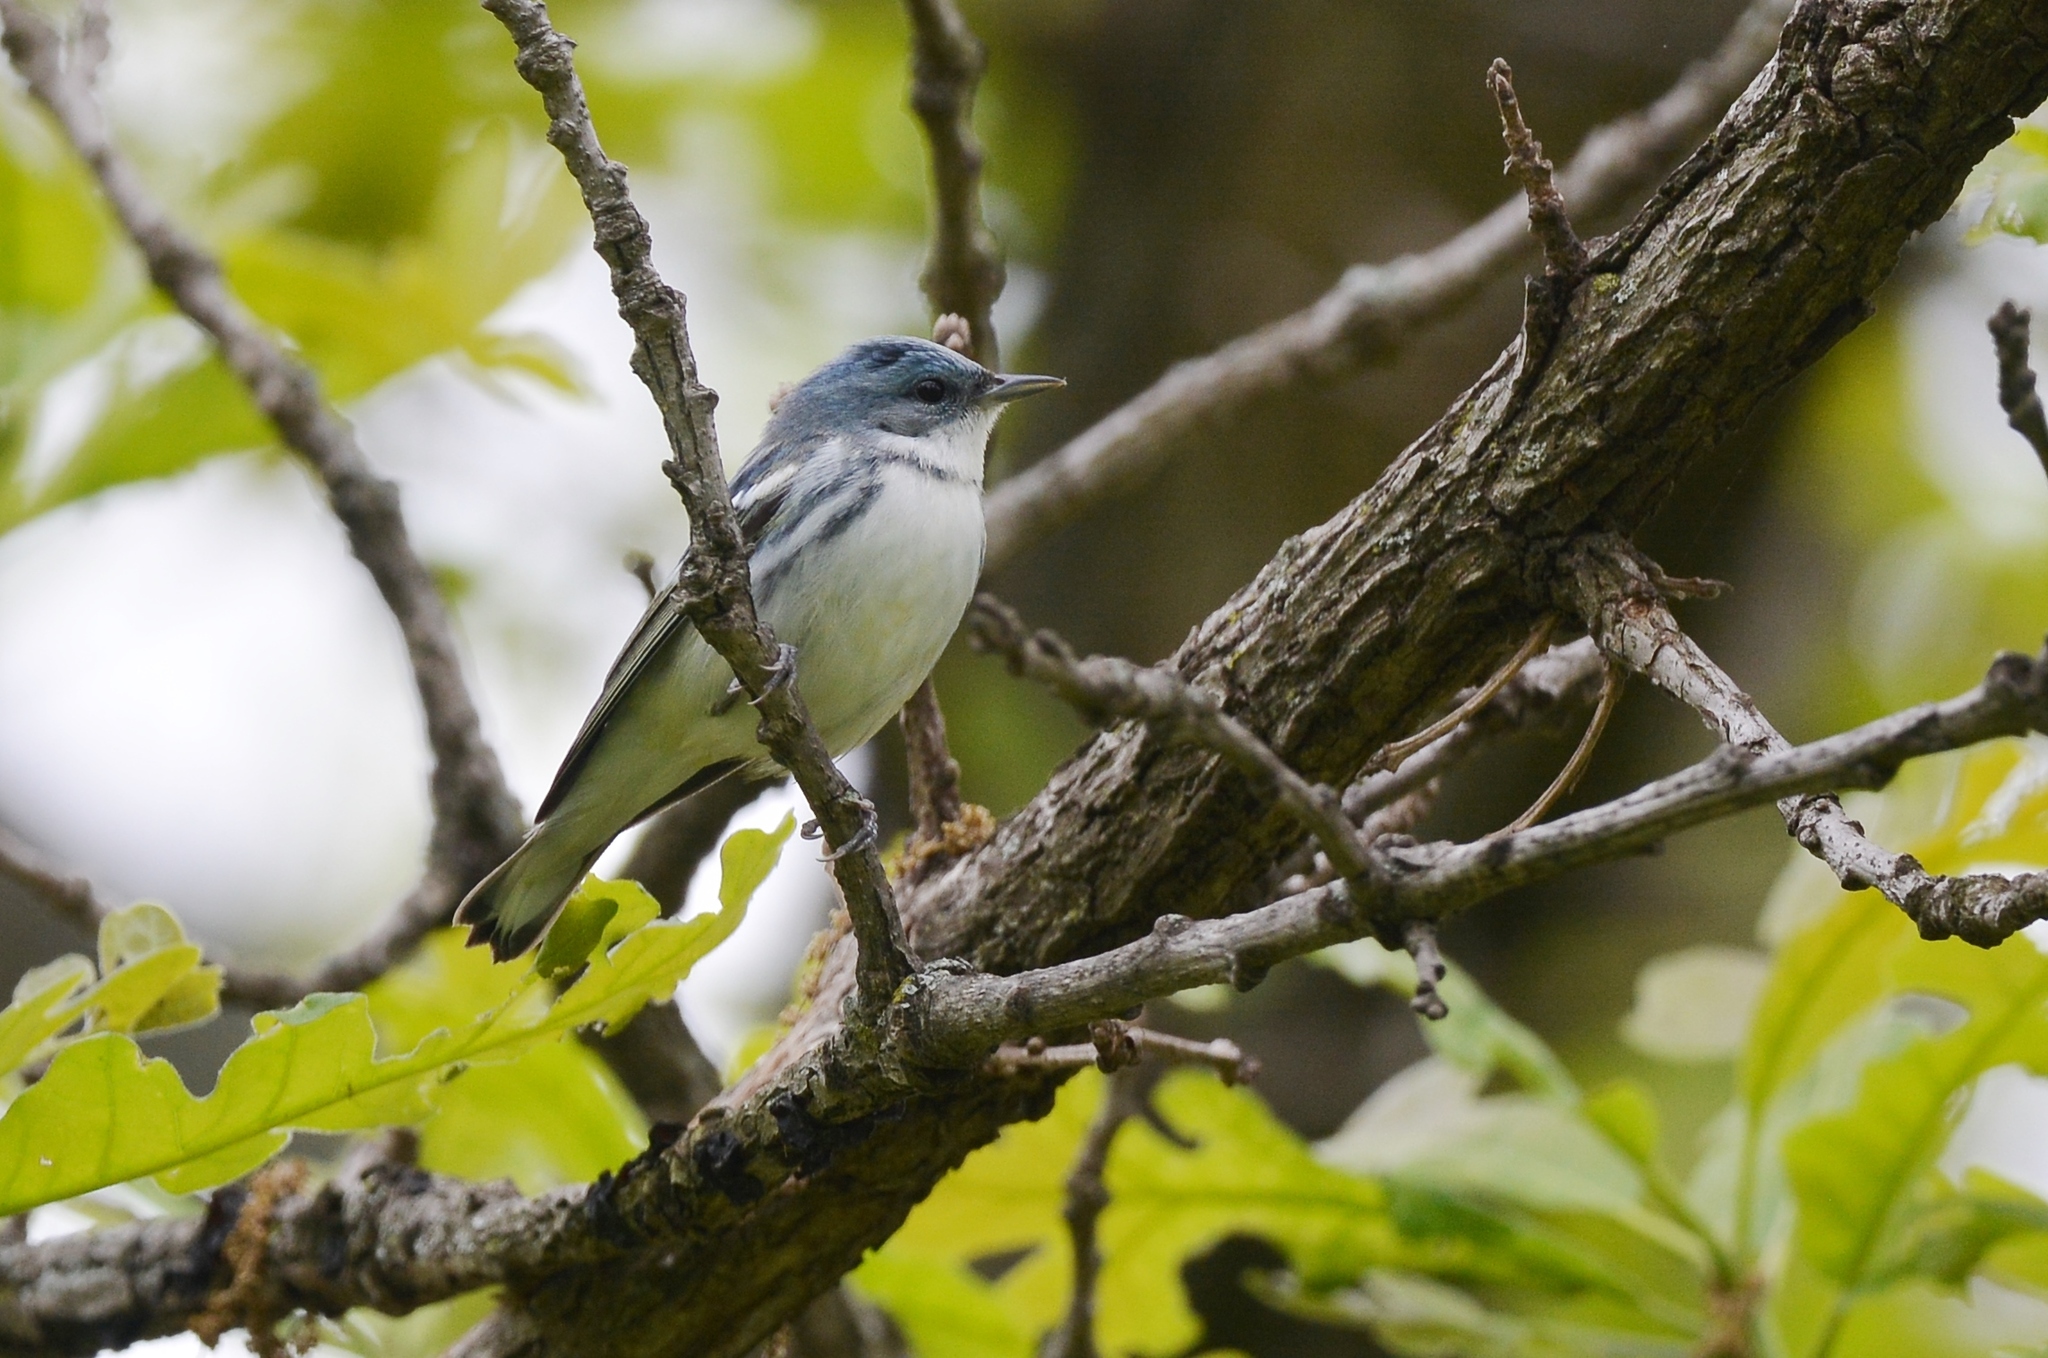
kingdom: Animalia
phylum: Chordata
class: Aves
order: Passeriformes
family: Parulidae
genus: Setophaga
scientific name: Setophaga cerulea
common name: Cerulean warbler
